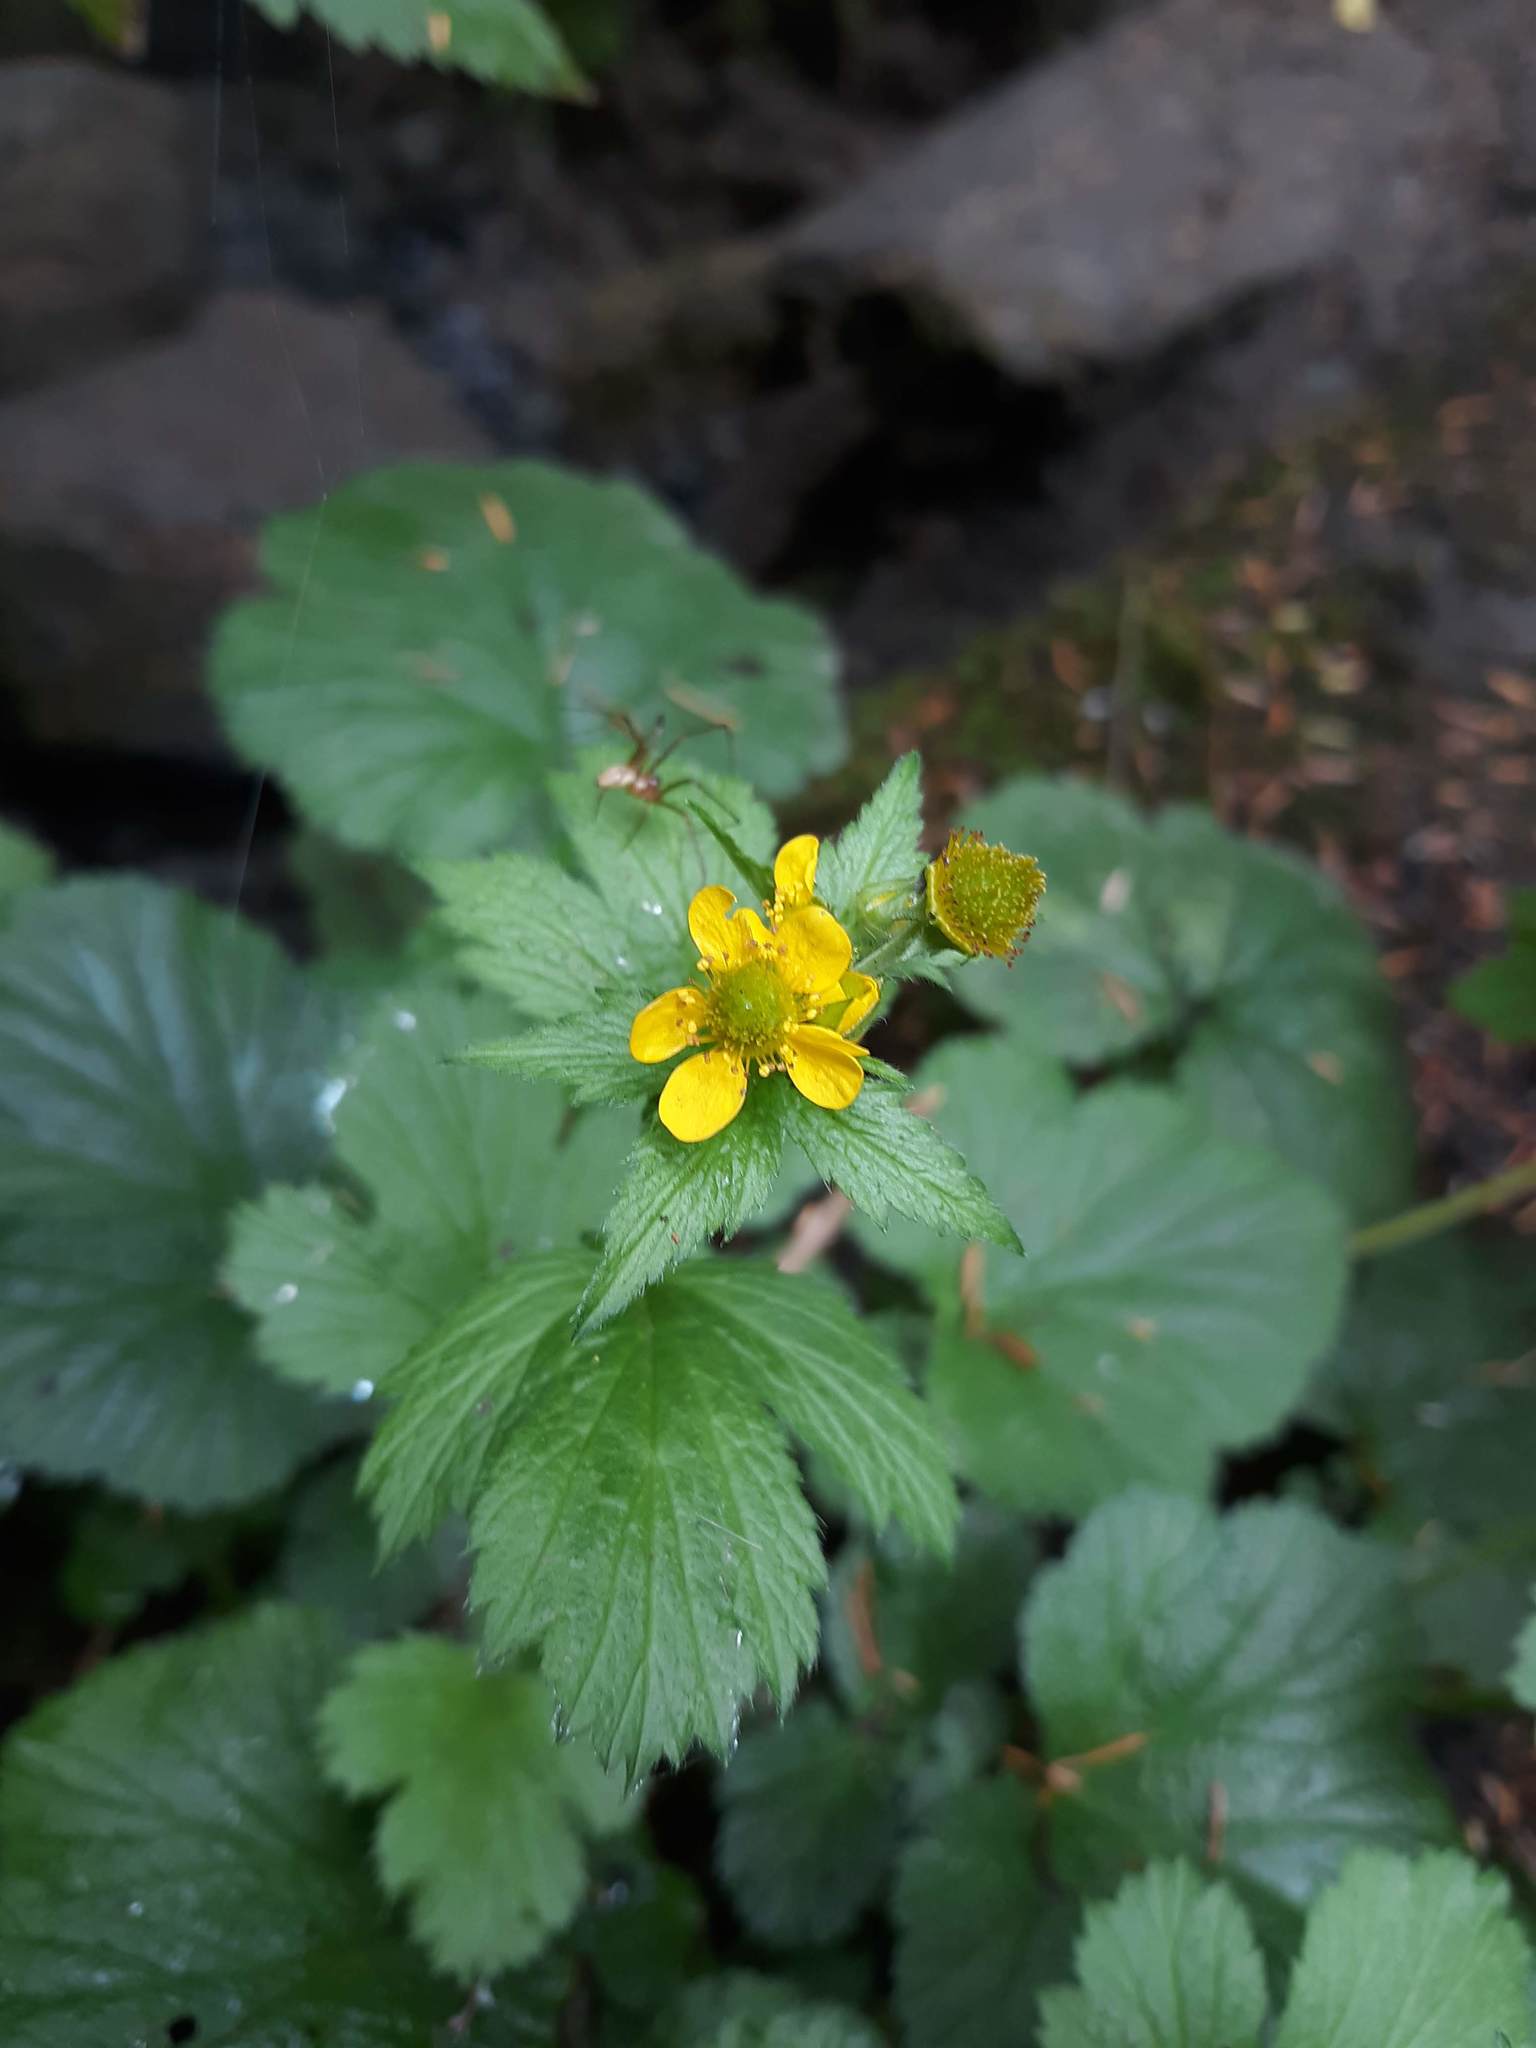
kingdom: Plantae
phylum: Tracheophyta
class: Magnoliopsida
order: Rosales
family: Rosaceae
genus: Geum
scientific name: Geum macrophyllum
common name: Large-leaved avens
